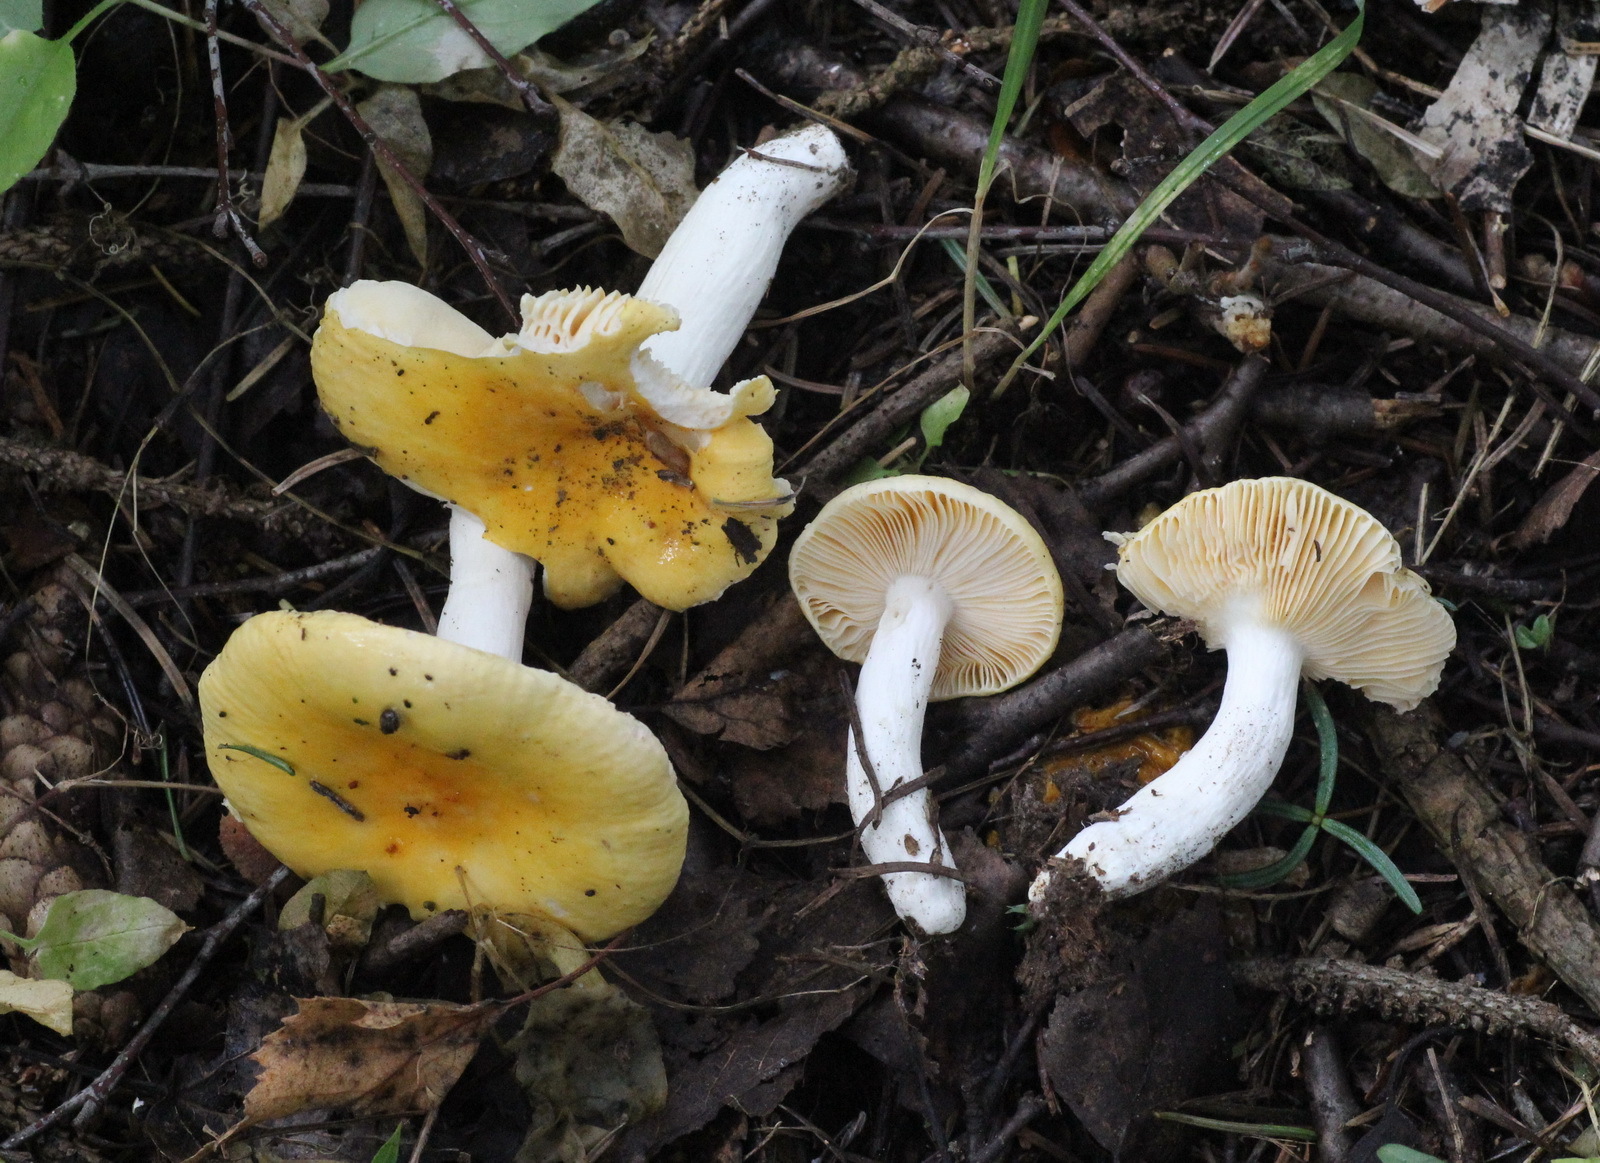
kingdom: Fungi
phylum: Basidiomycota
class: Agaricomycetes
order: Russulales
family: Russulaceae
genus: Russula
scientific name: Russula risigallina
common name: Golden brittlegill
